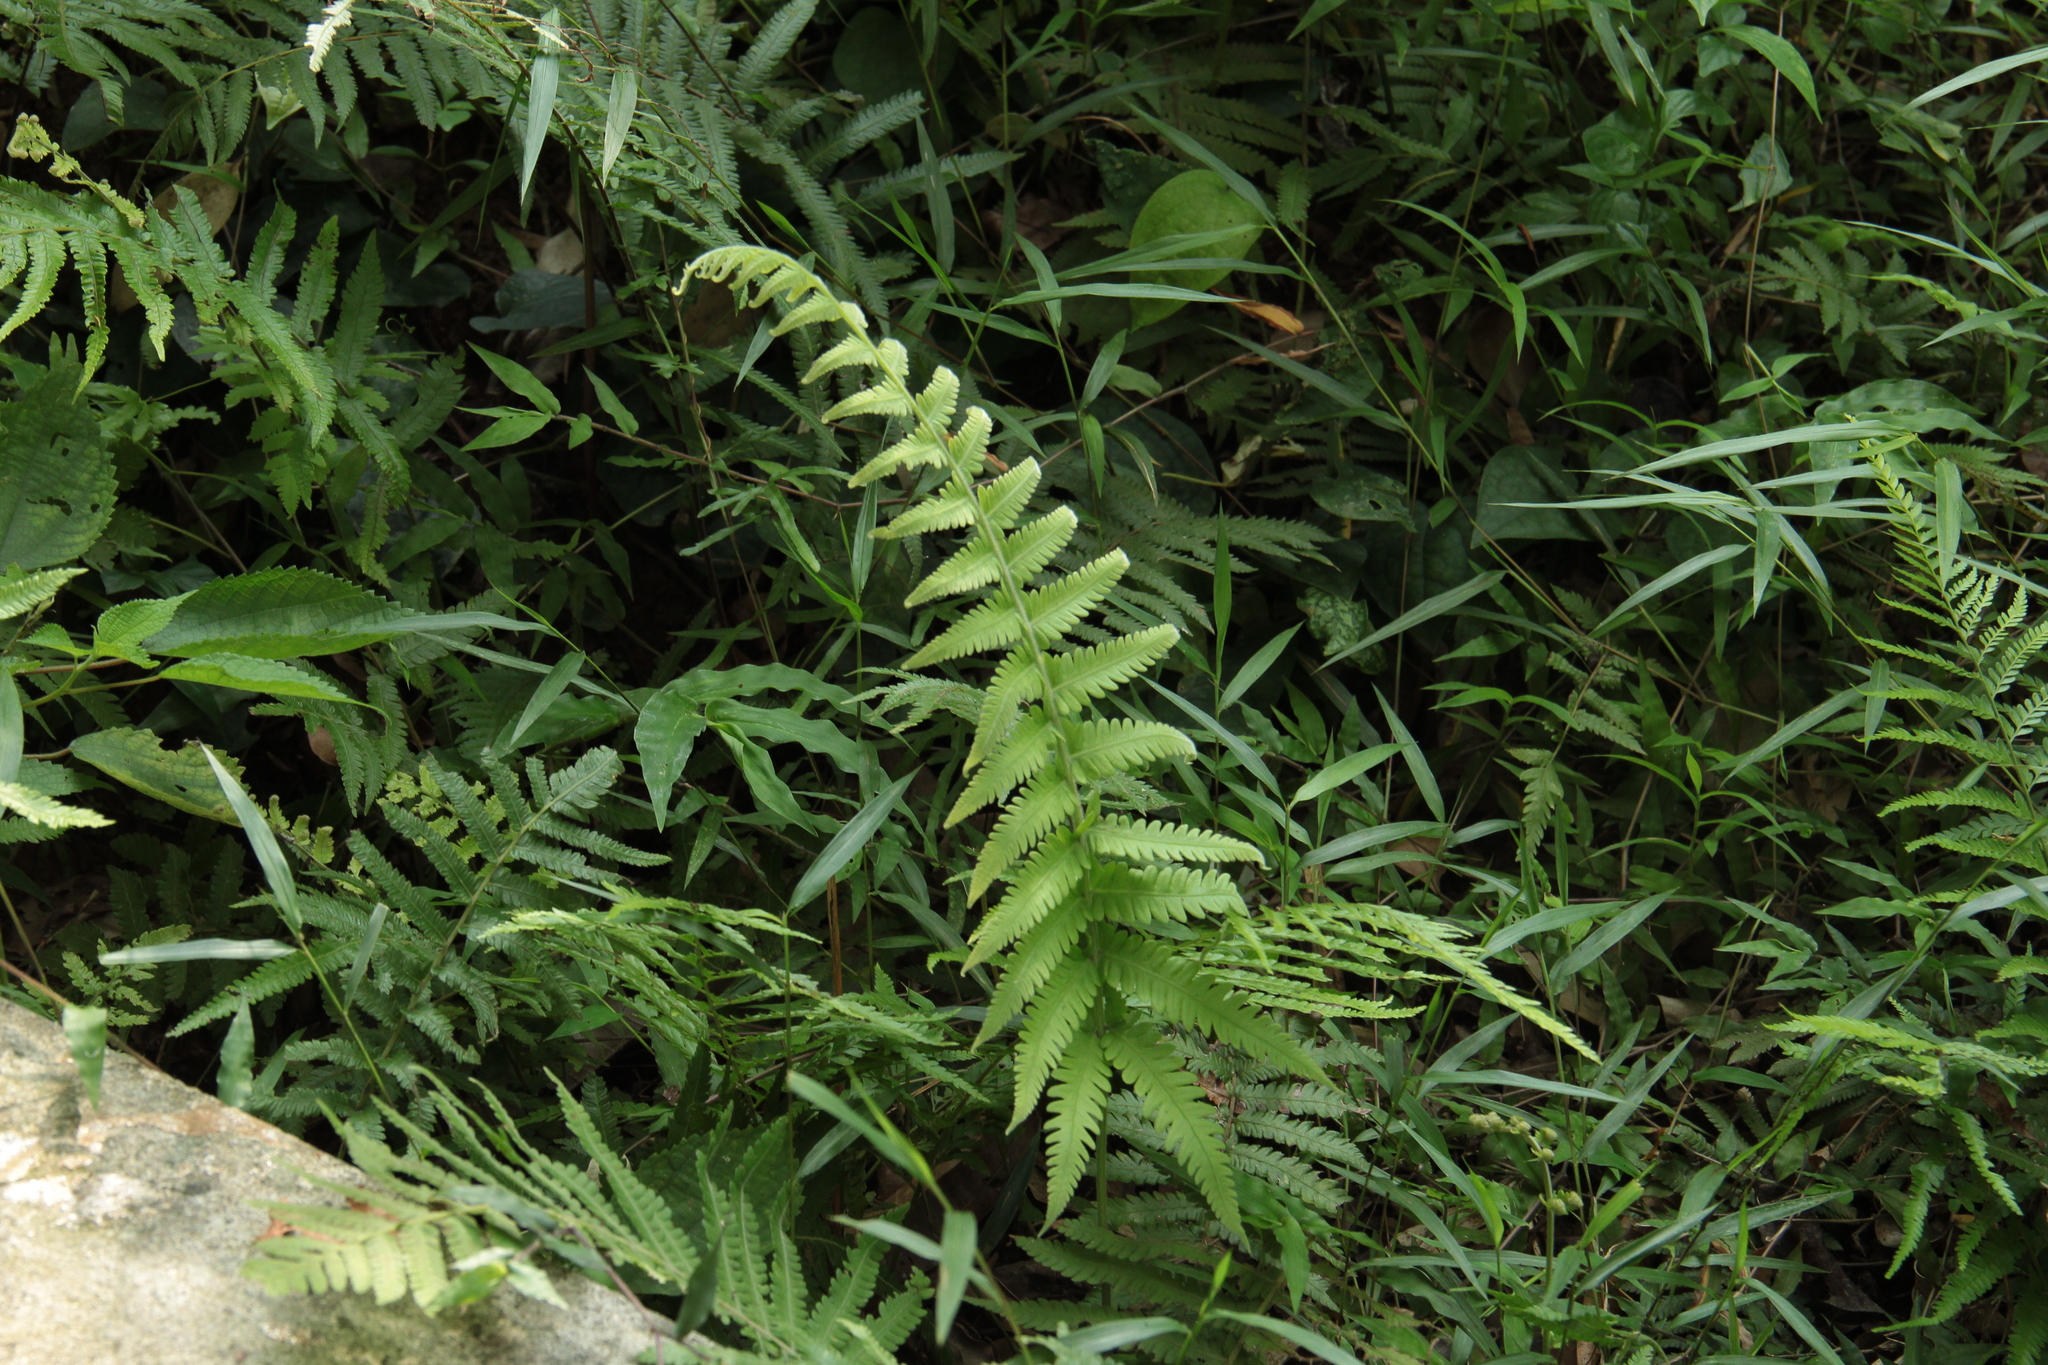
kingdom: Plantae
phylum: Tracheophyta
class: Polypodiopsida
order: Polypodiales
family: Thelypteridaceae
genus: Christella
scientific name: Christella parasitica
